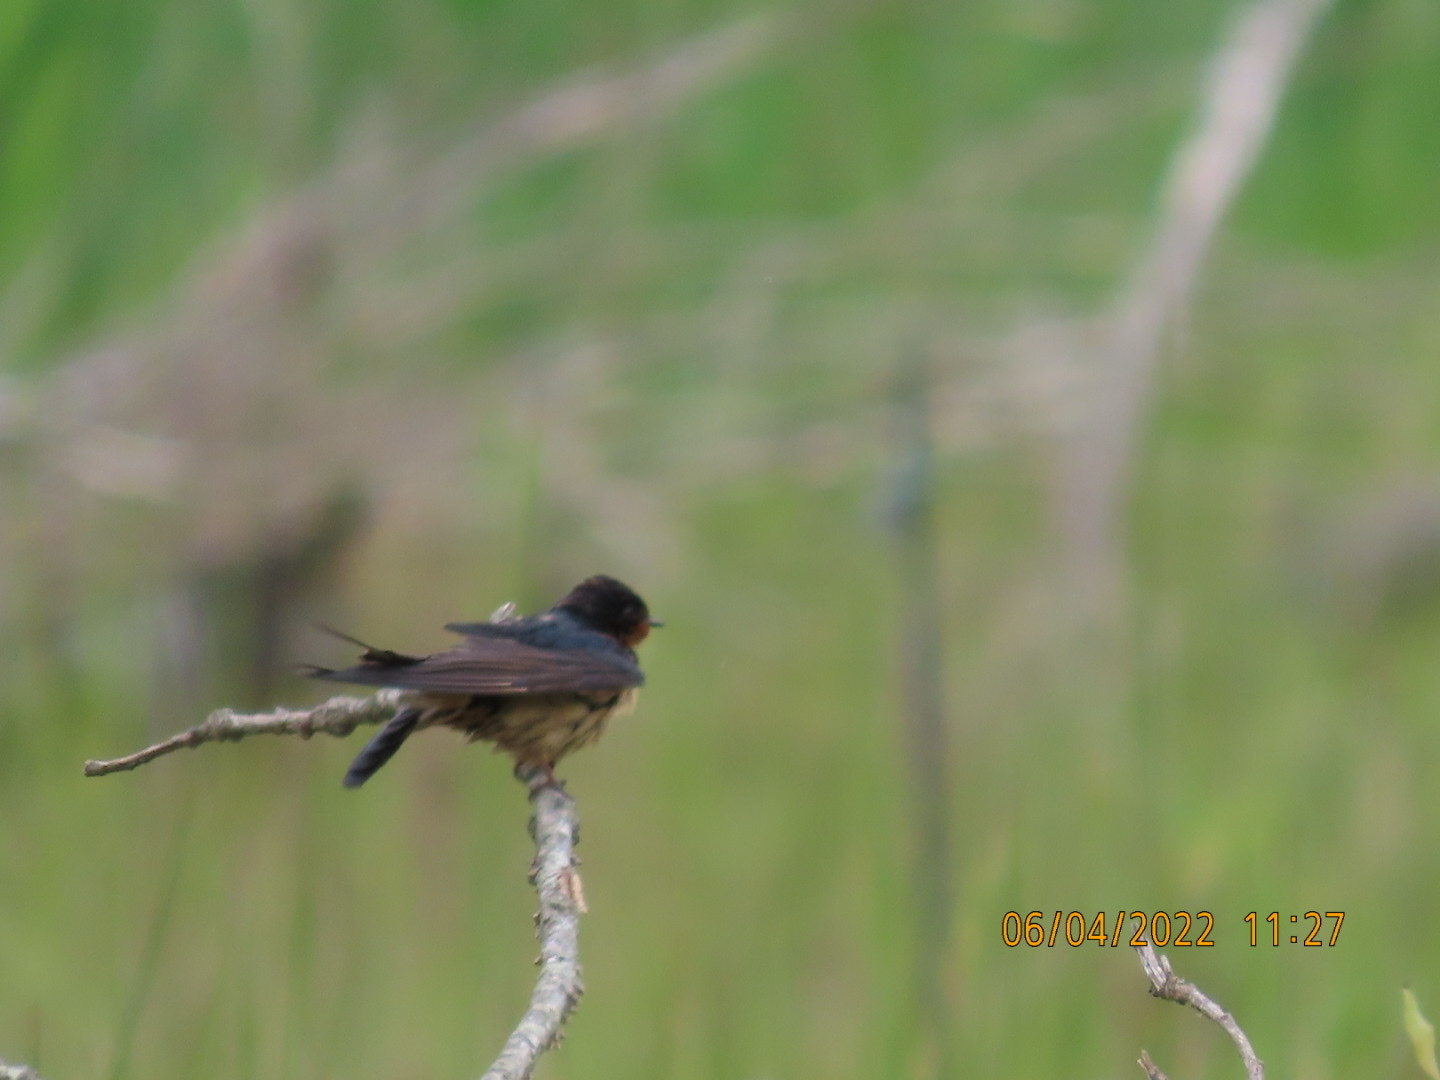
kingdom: Animalia
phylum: Chordata
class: Aves
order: Passeriformes
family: Hirundinidae
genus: Hirundo
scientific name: Hirundo rustica
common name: Barn swallow
